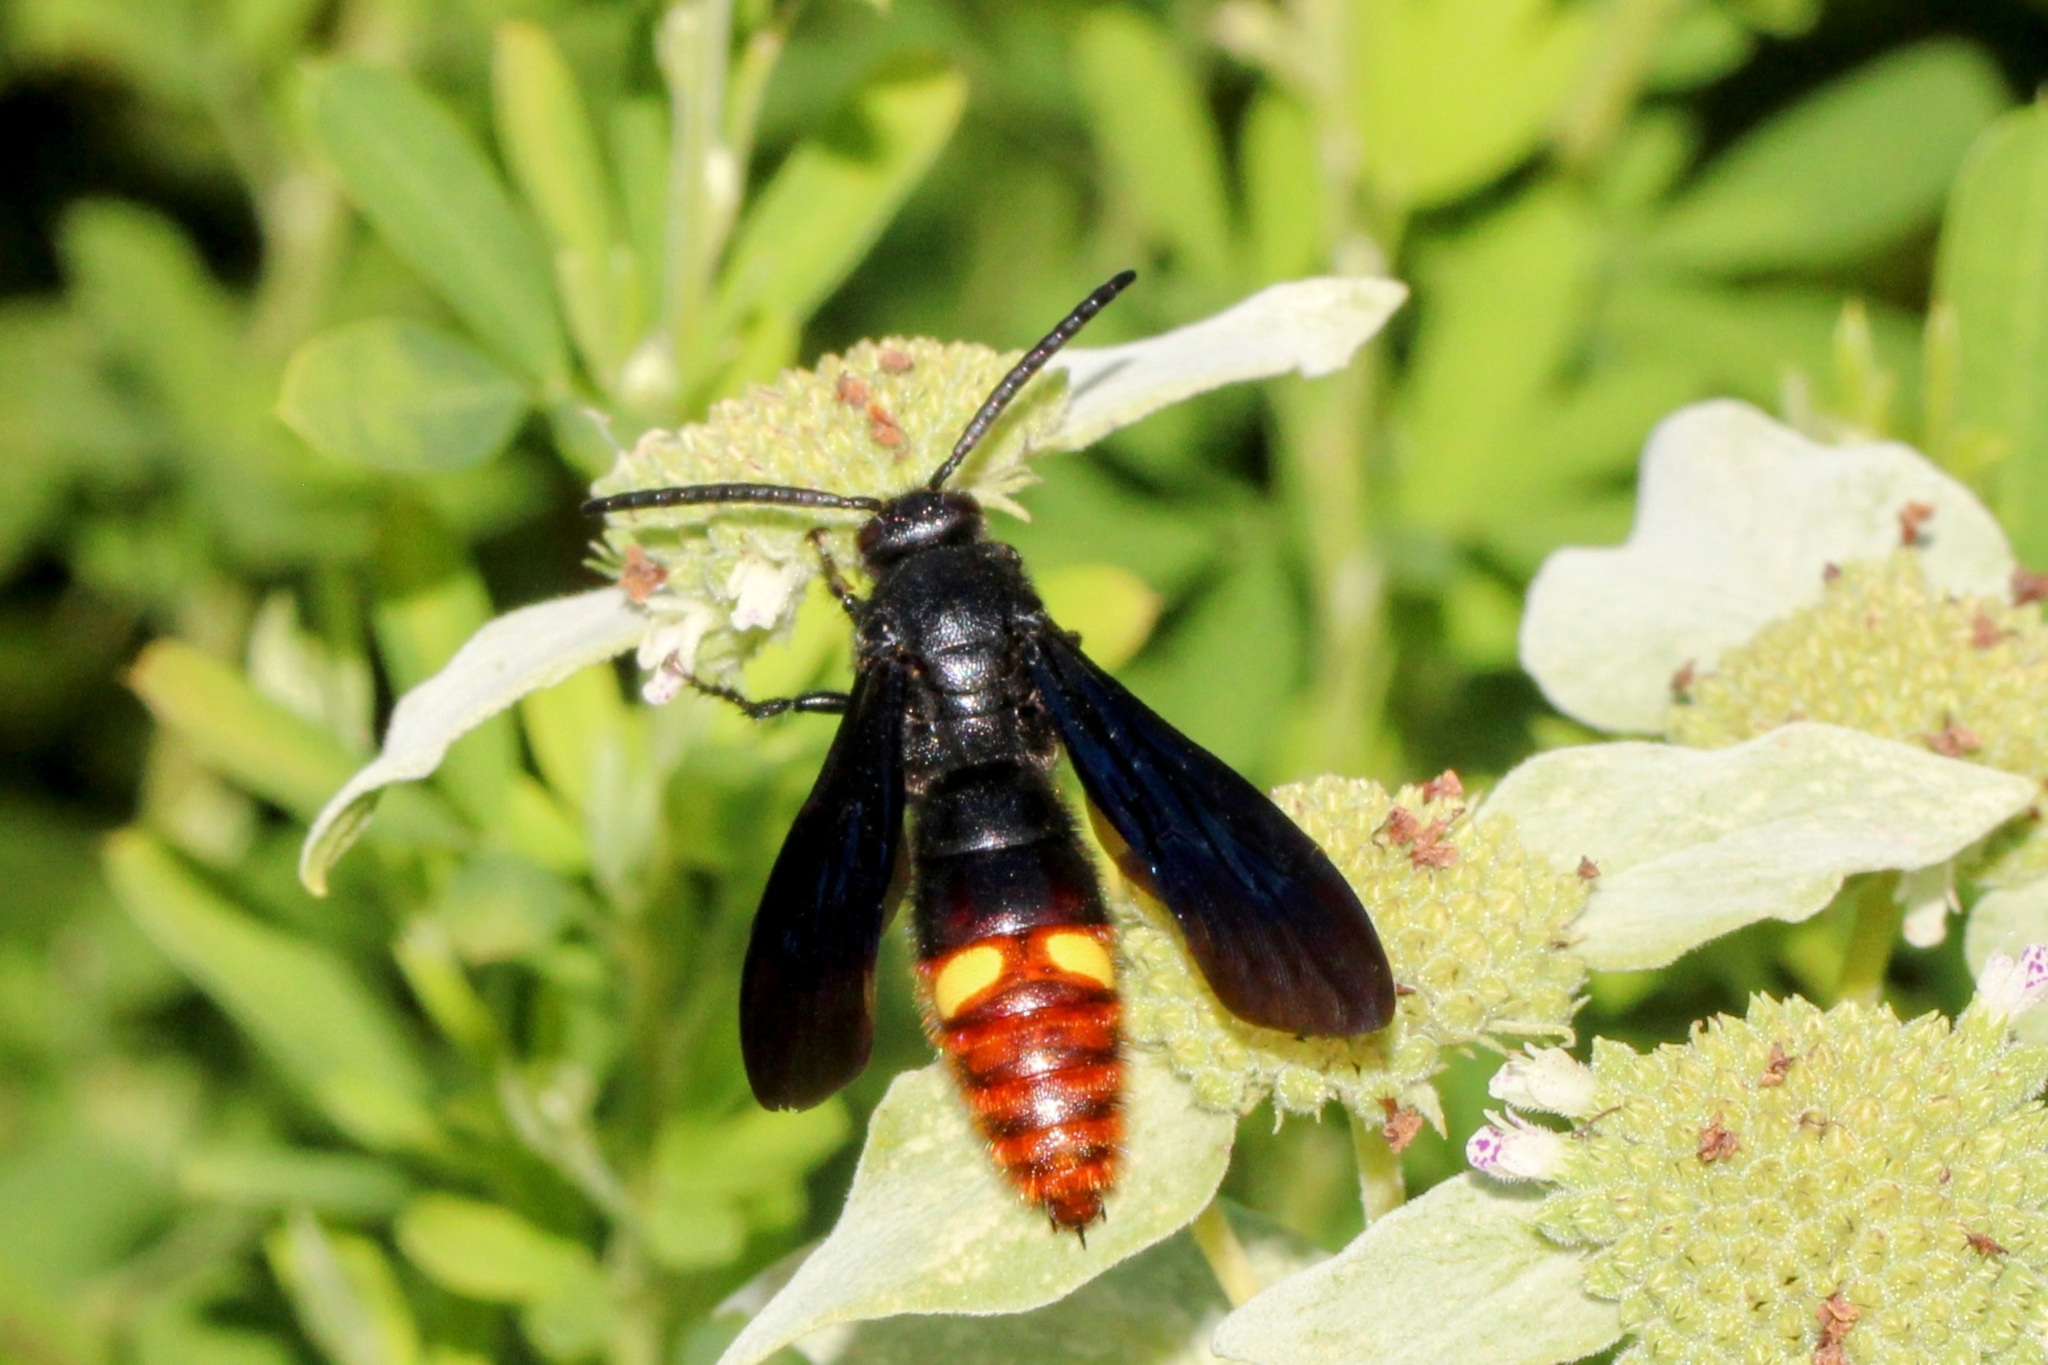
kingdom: Animalia
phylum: Arthropoda
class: Insecta
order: Hymenoptera
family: Scoliidae
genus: Scolia
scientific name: Scolia dubia
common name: Blue-winged scoliid wasp
